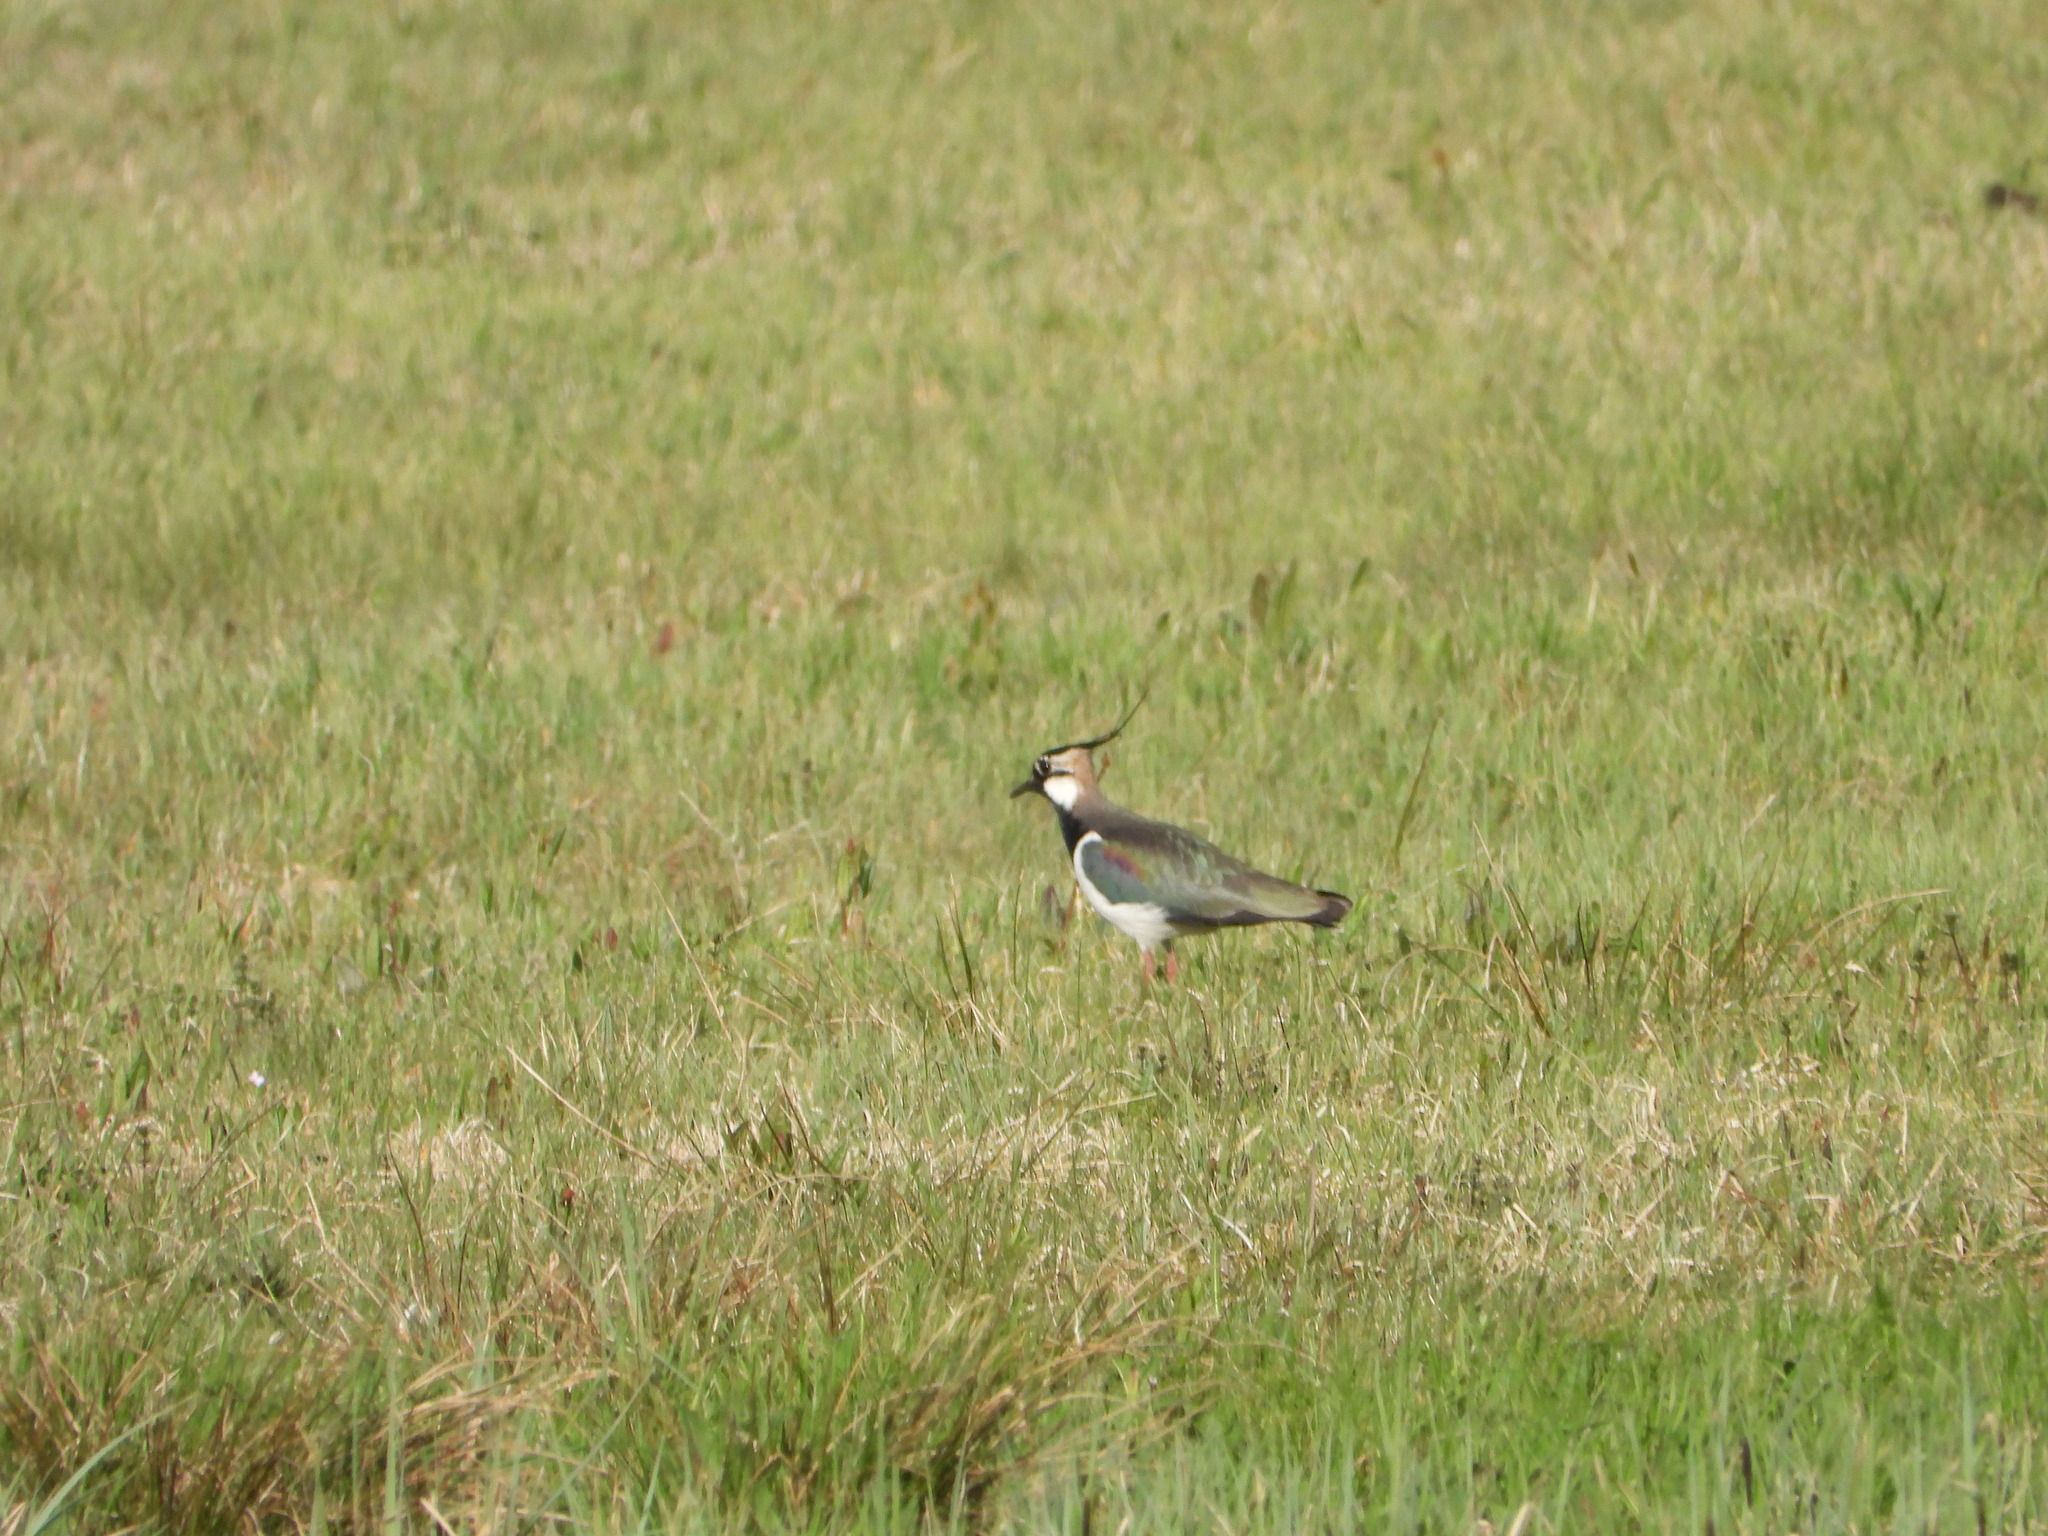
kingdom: Animalia
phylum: Chordata
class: Aves
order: Charadriiformes
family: Charadriidae
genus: Vanellus
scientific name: Vanellus vanellus
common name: Northern lapwing
